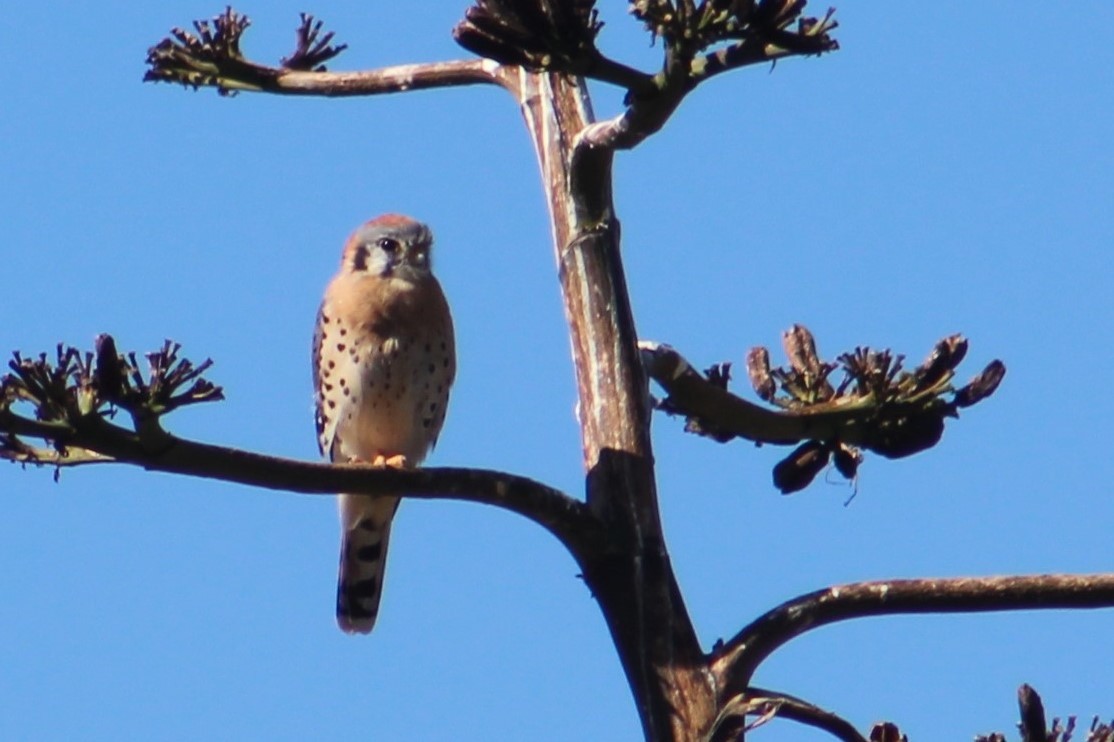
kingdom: Animalia
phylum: Chordata
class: Aves
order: Falconiformes
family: Falconidae
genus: Falco
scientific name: Falco sparverius
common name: American kestrel
